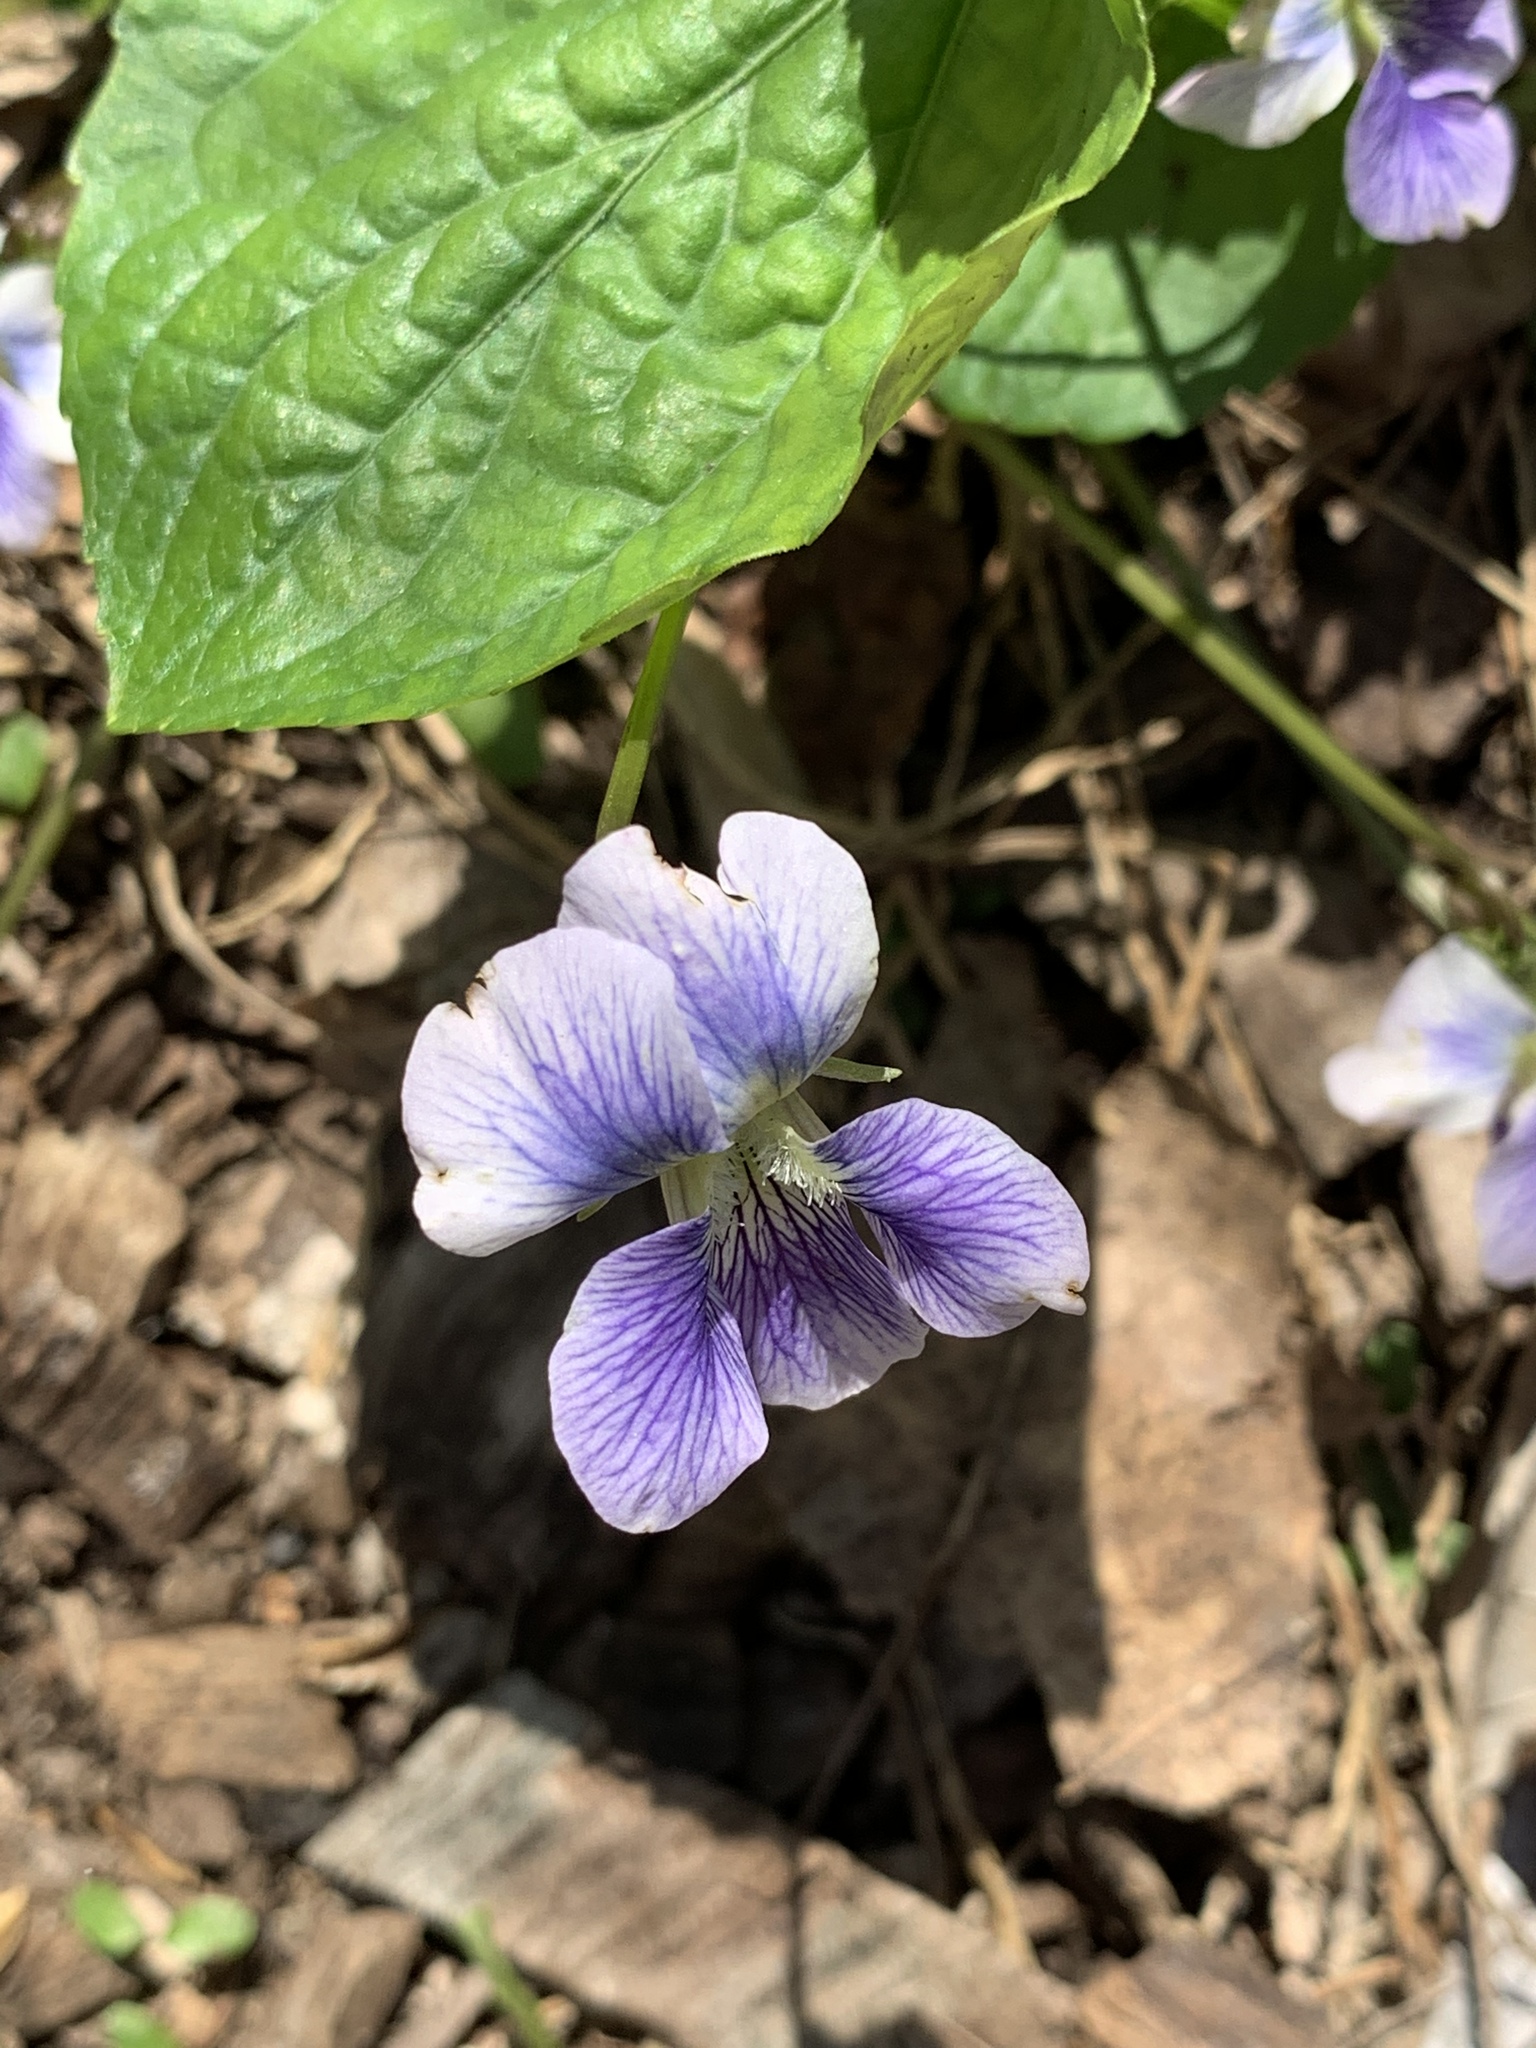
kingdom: Plantae
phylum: Tracheophyta
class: Magnoliopsida
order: Malpighiales
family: Violaceae
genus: Viola
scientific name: Viola sororia
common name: Dooryard violet
